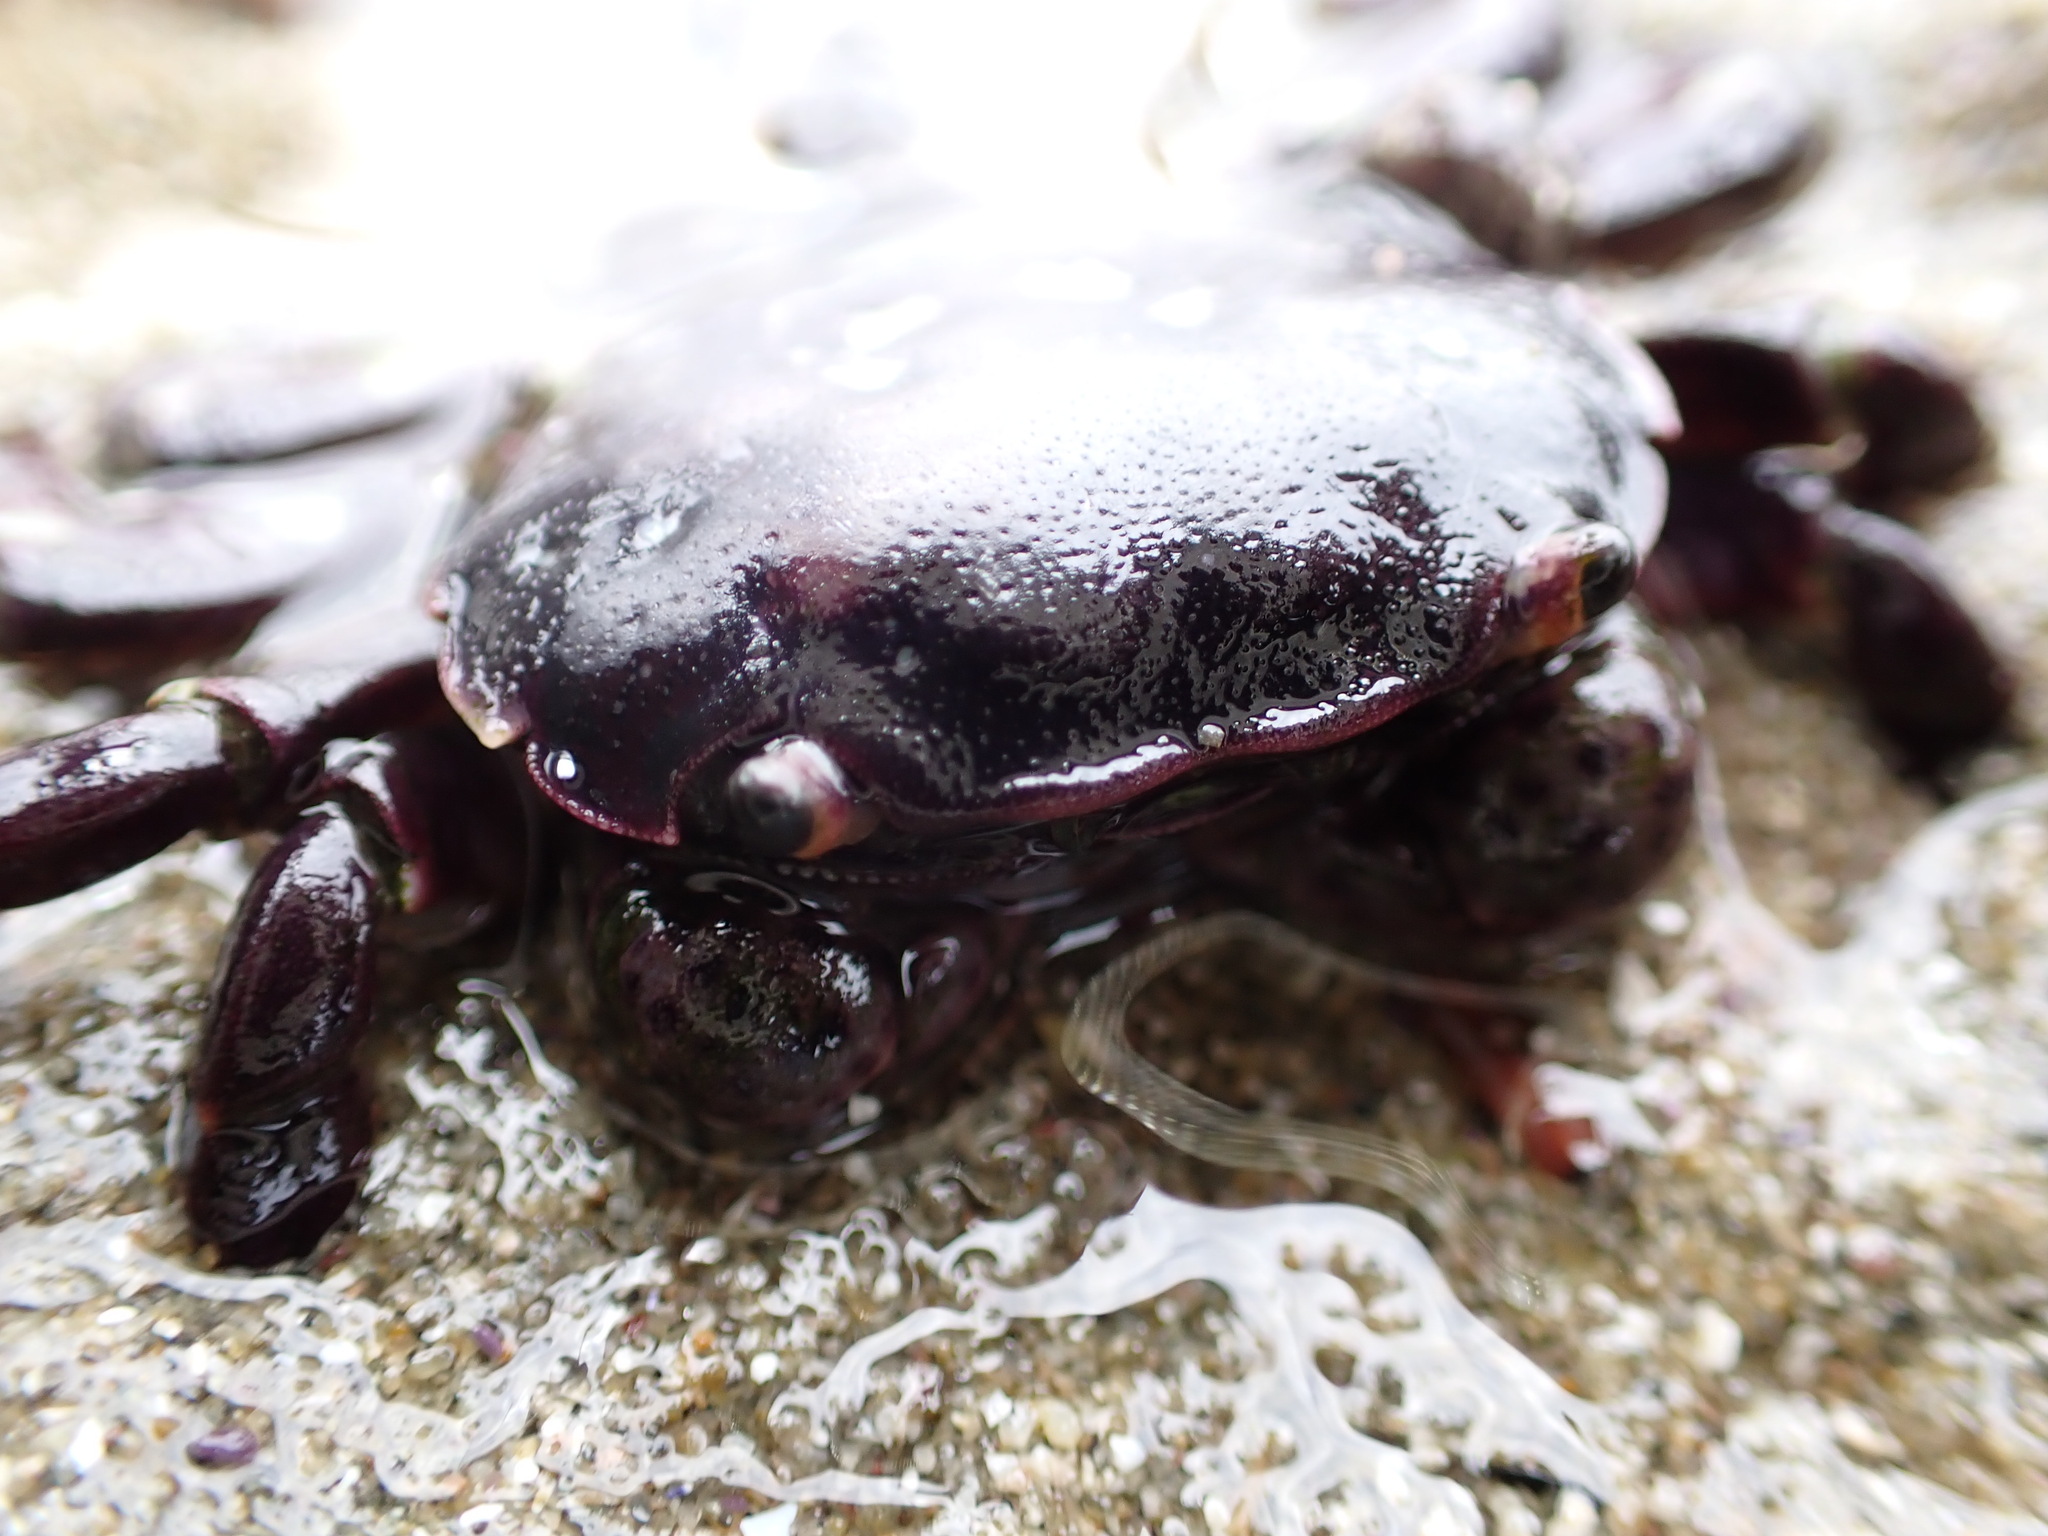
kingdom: Animalia
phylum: Arthropoda
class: Malacostraca
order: Decapoda
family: Varunidae
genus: Hemigrapsus
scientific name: Hemigrapsus nudus
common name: Purple shore crab
